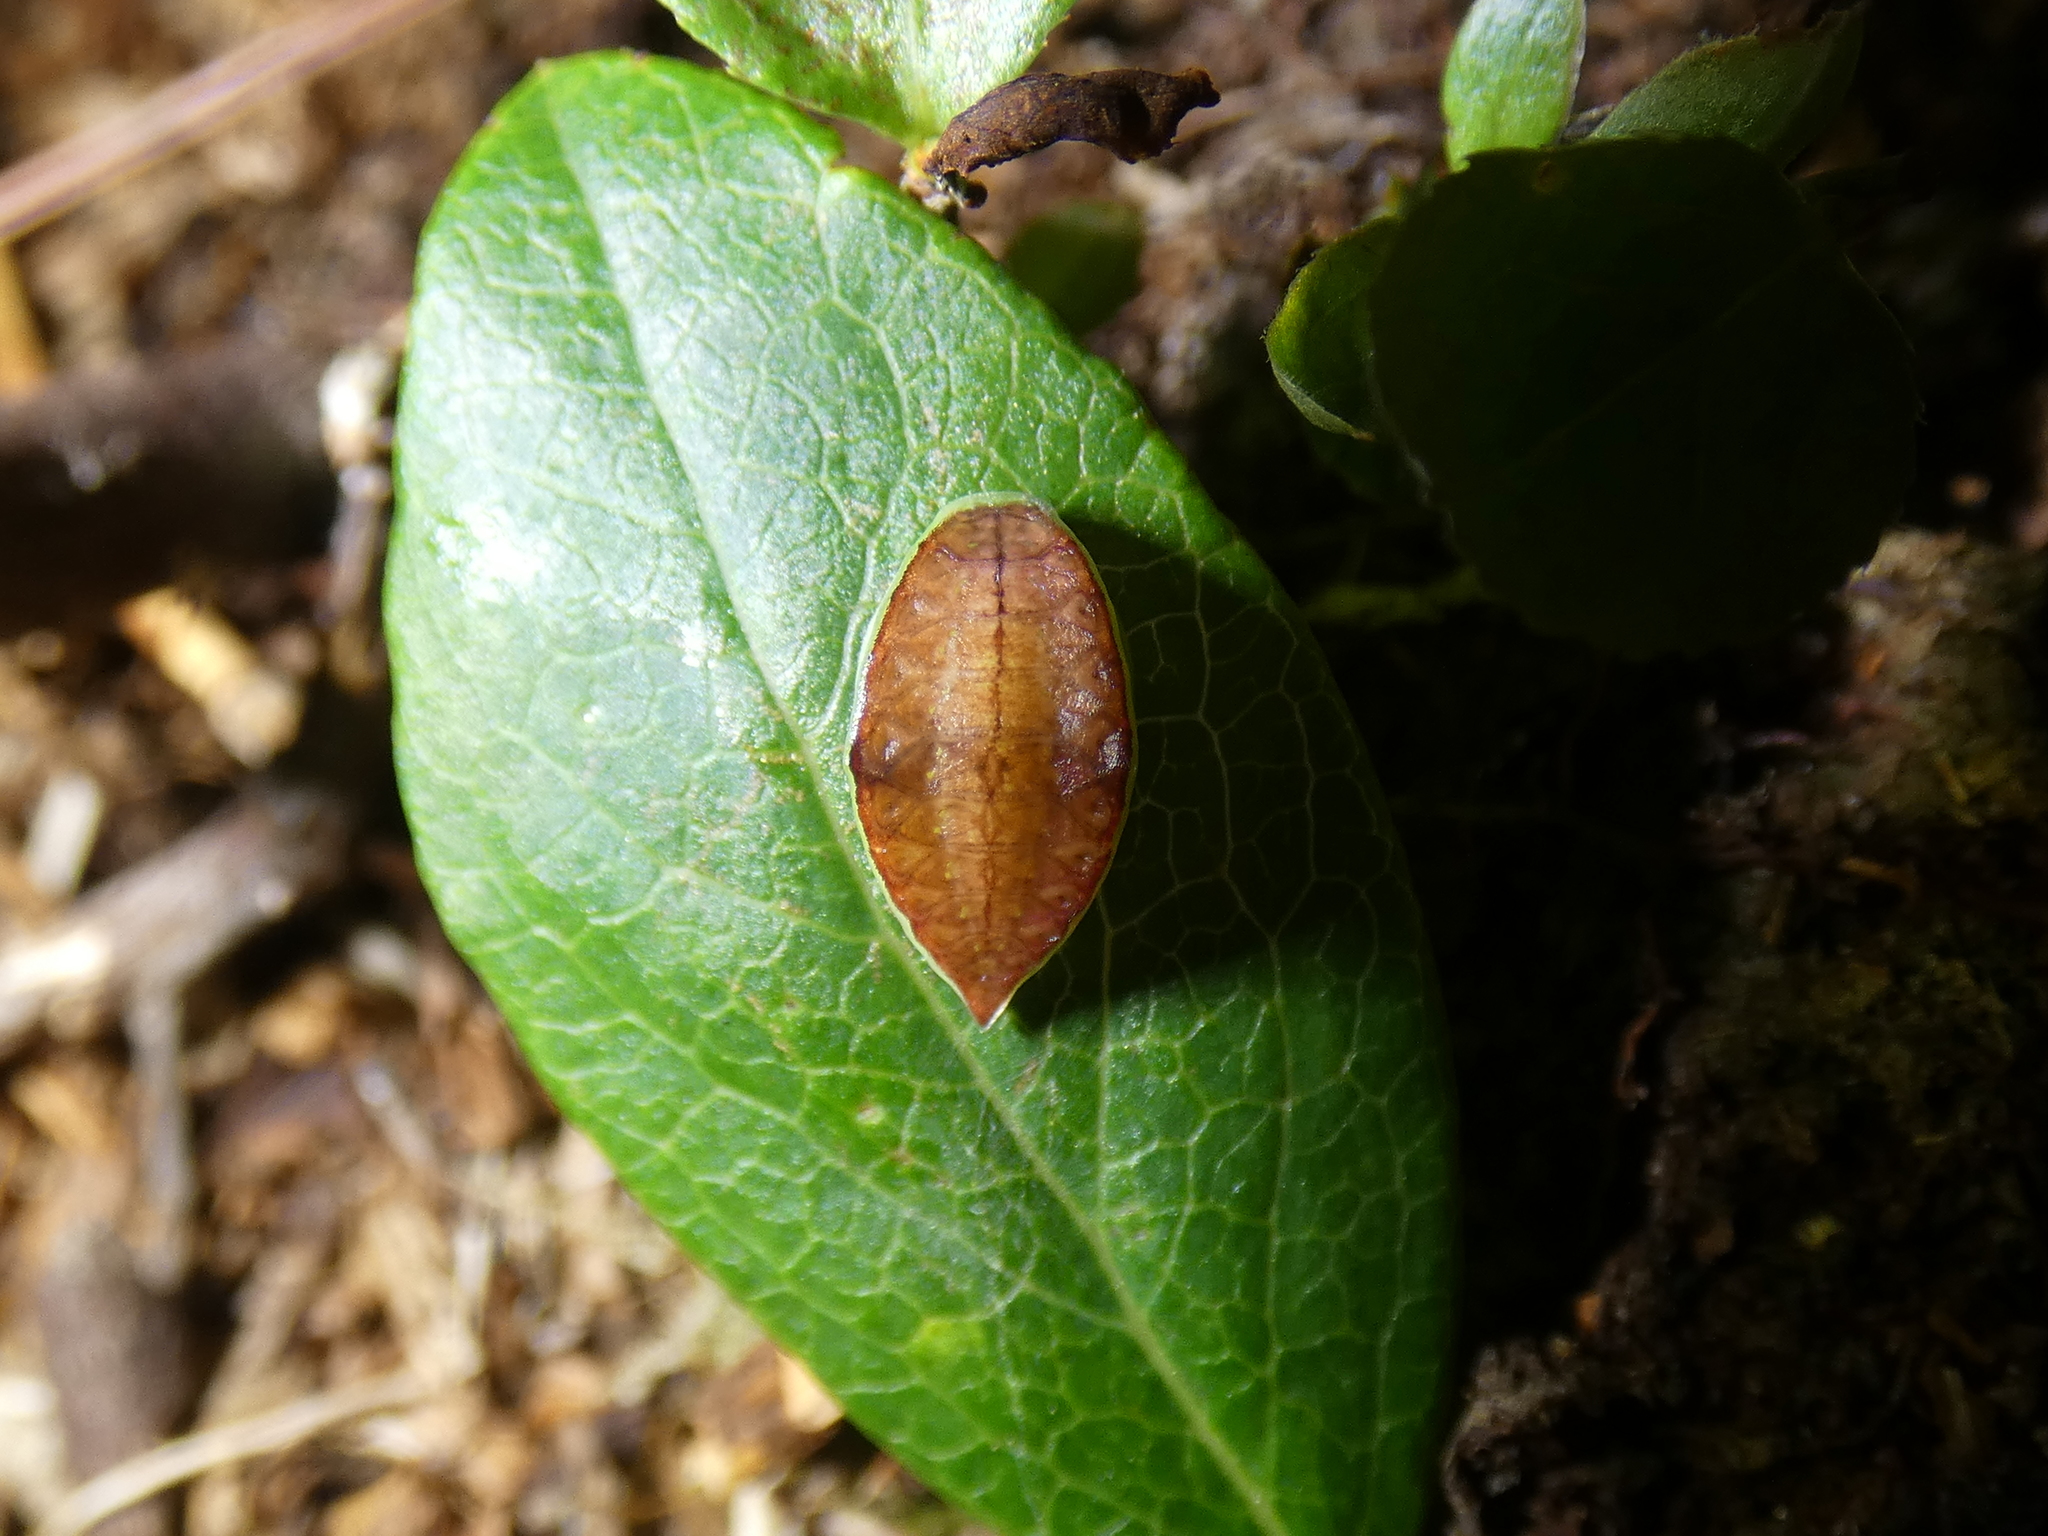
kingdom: Animalia
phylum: Arthropoda
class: Insecta
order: Lepidoptera
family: Limacodidae
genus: Prolimacodes
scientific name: Prolimacodes badia
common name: Skiff moth
